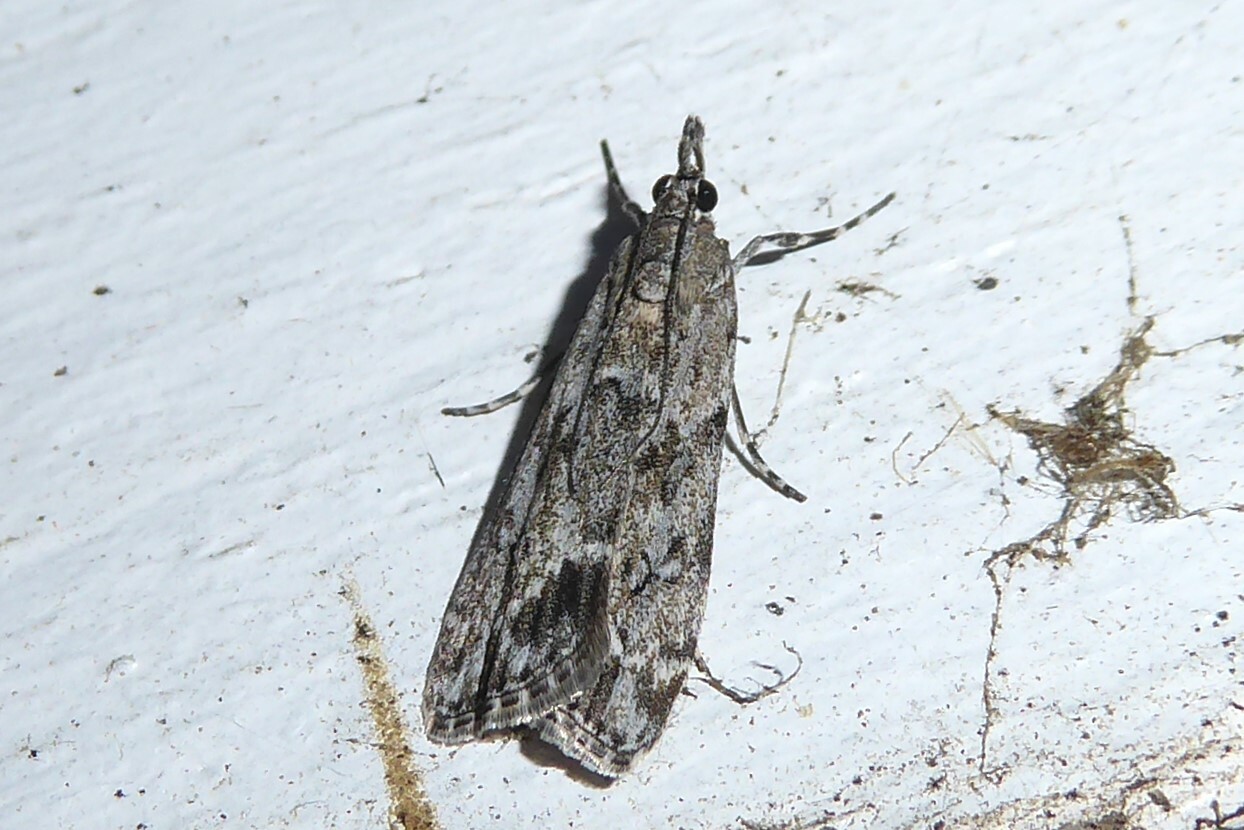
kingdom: Animalia
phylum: Arthropoda
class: Insecta
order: Lepidoptera
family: Crambidae
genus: Eudonia
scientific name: Eudonia rakaiensis
